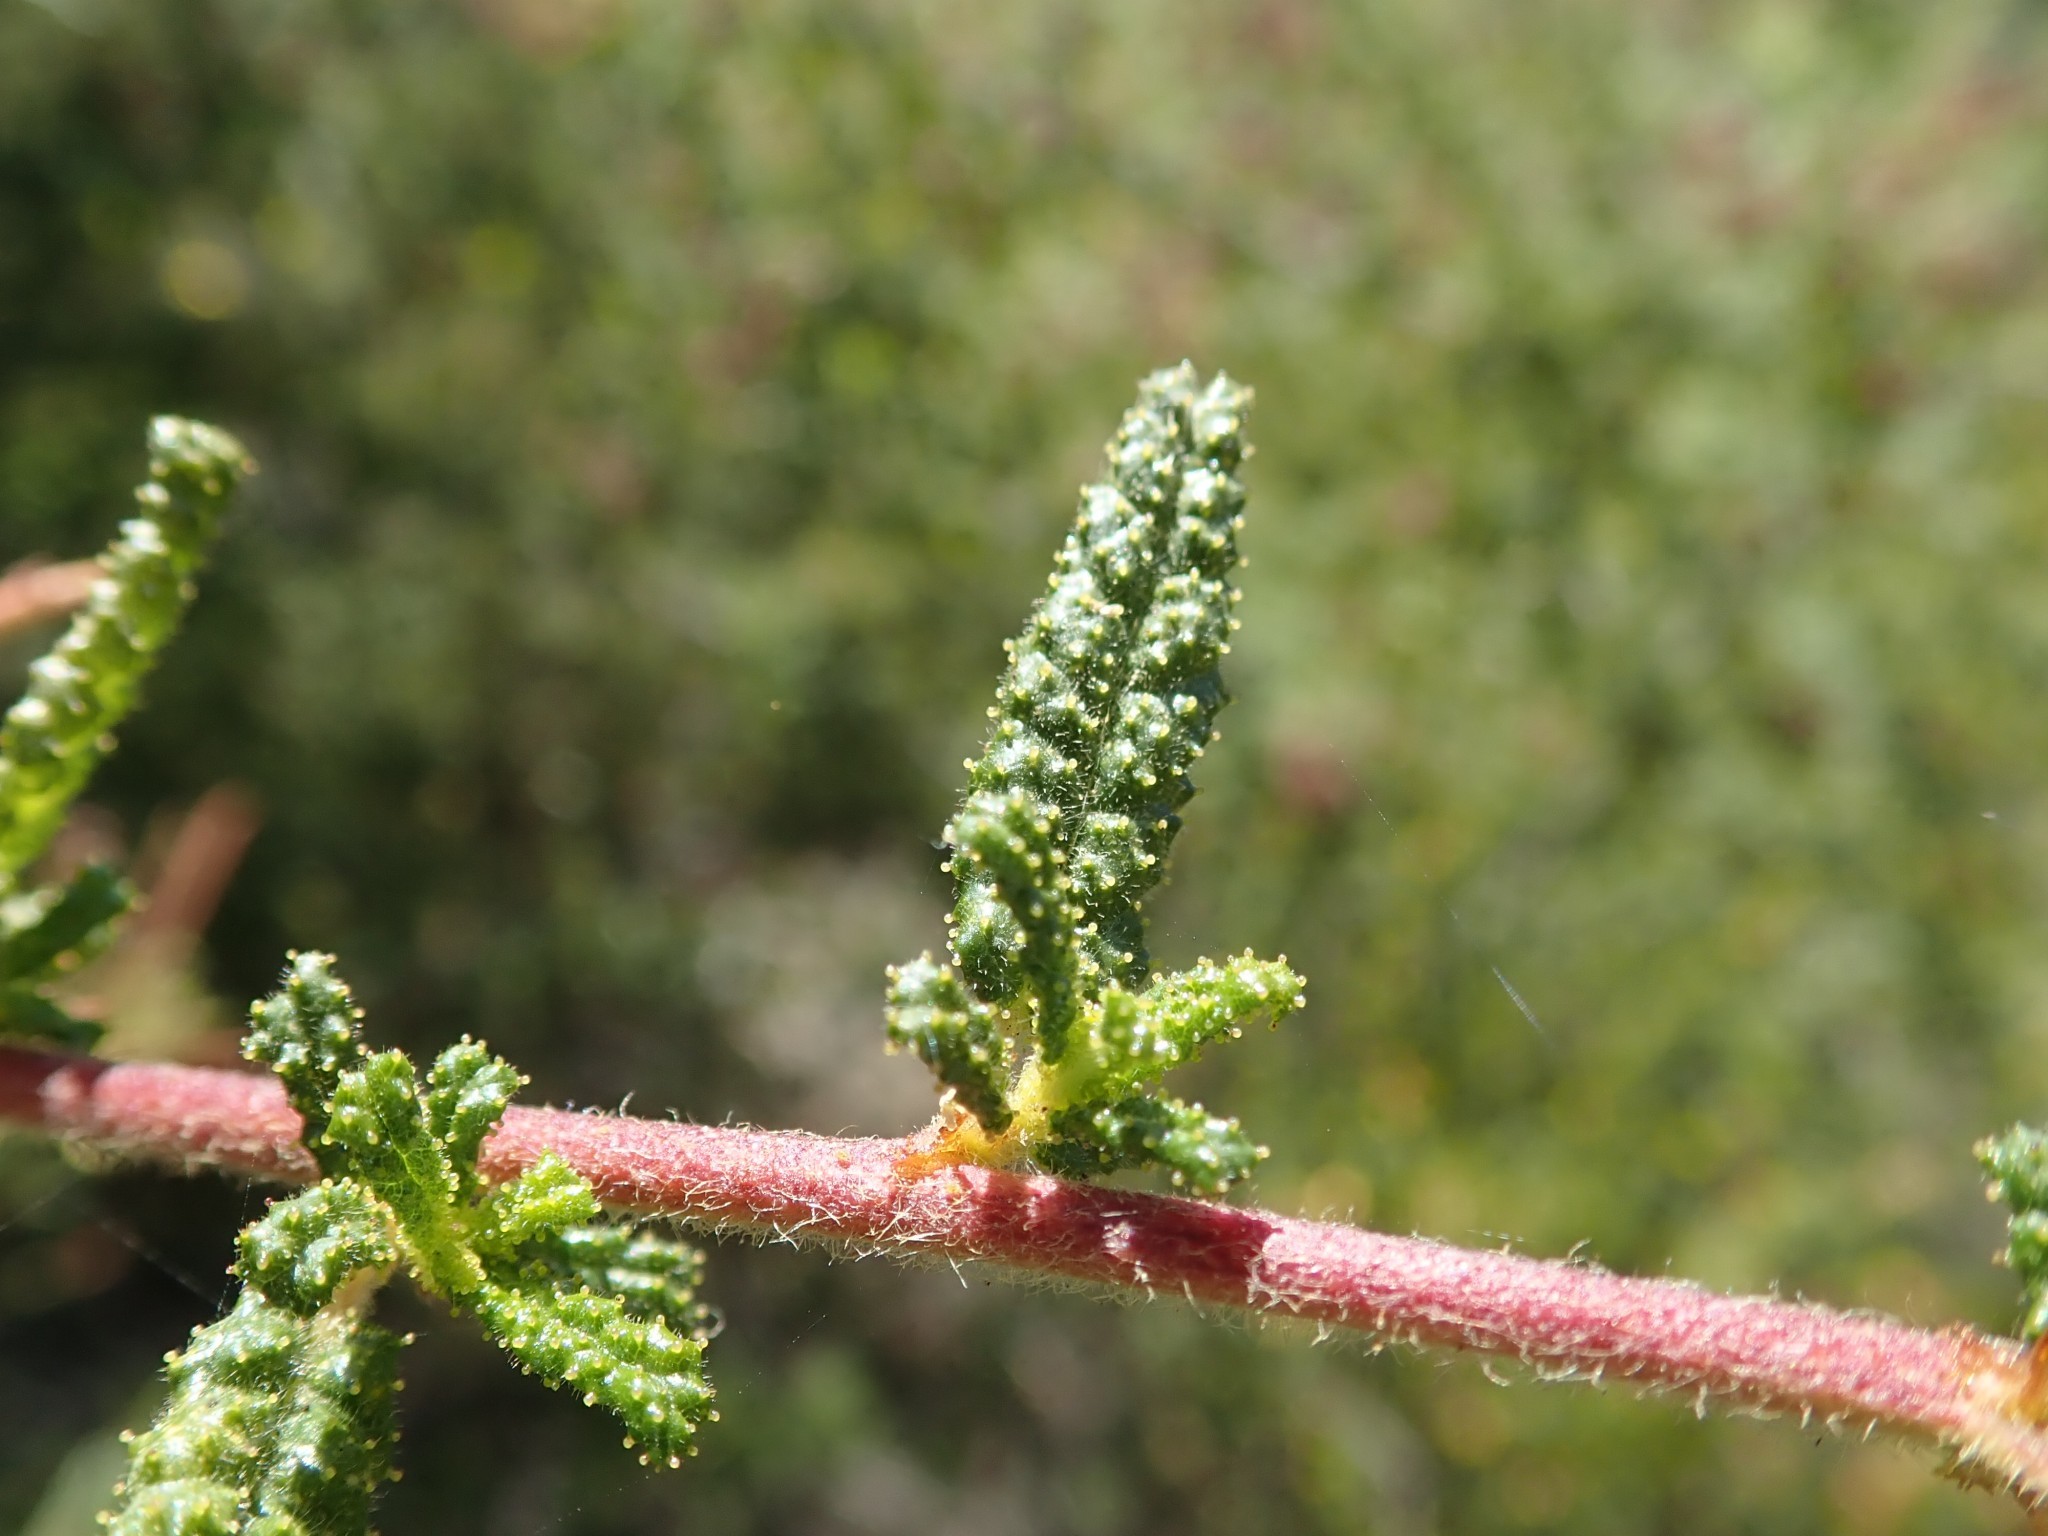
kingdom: Plantae
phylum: Tracheophyta
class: Magnoliopsida
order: Rosales
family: Rhamnaceae
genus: Ceanothus
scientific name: Ceanothus papillosus
